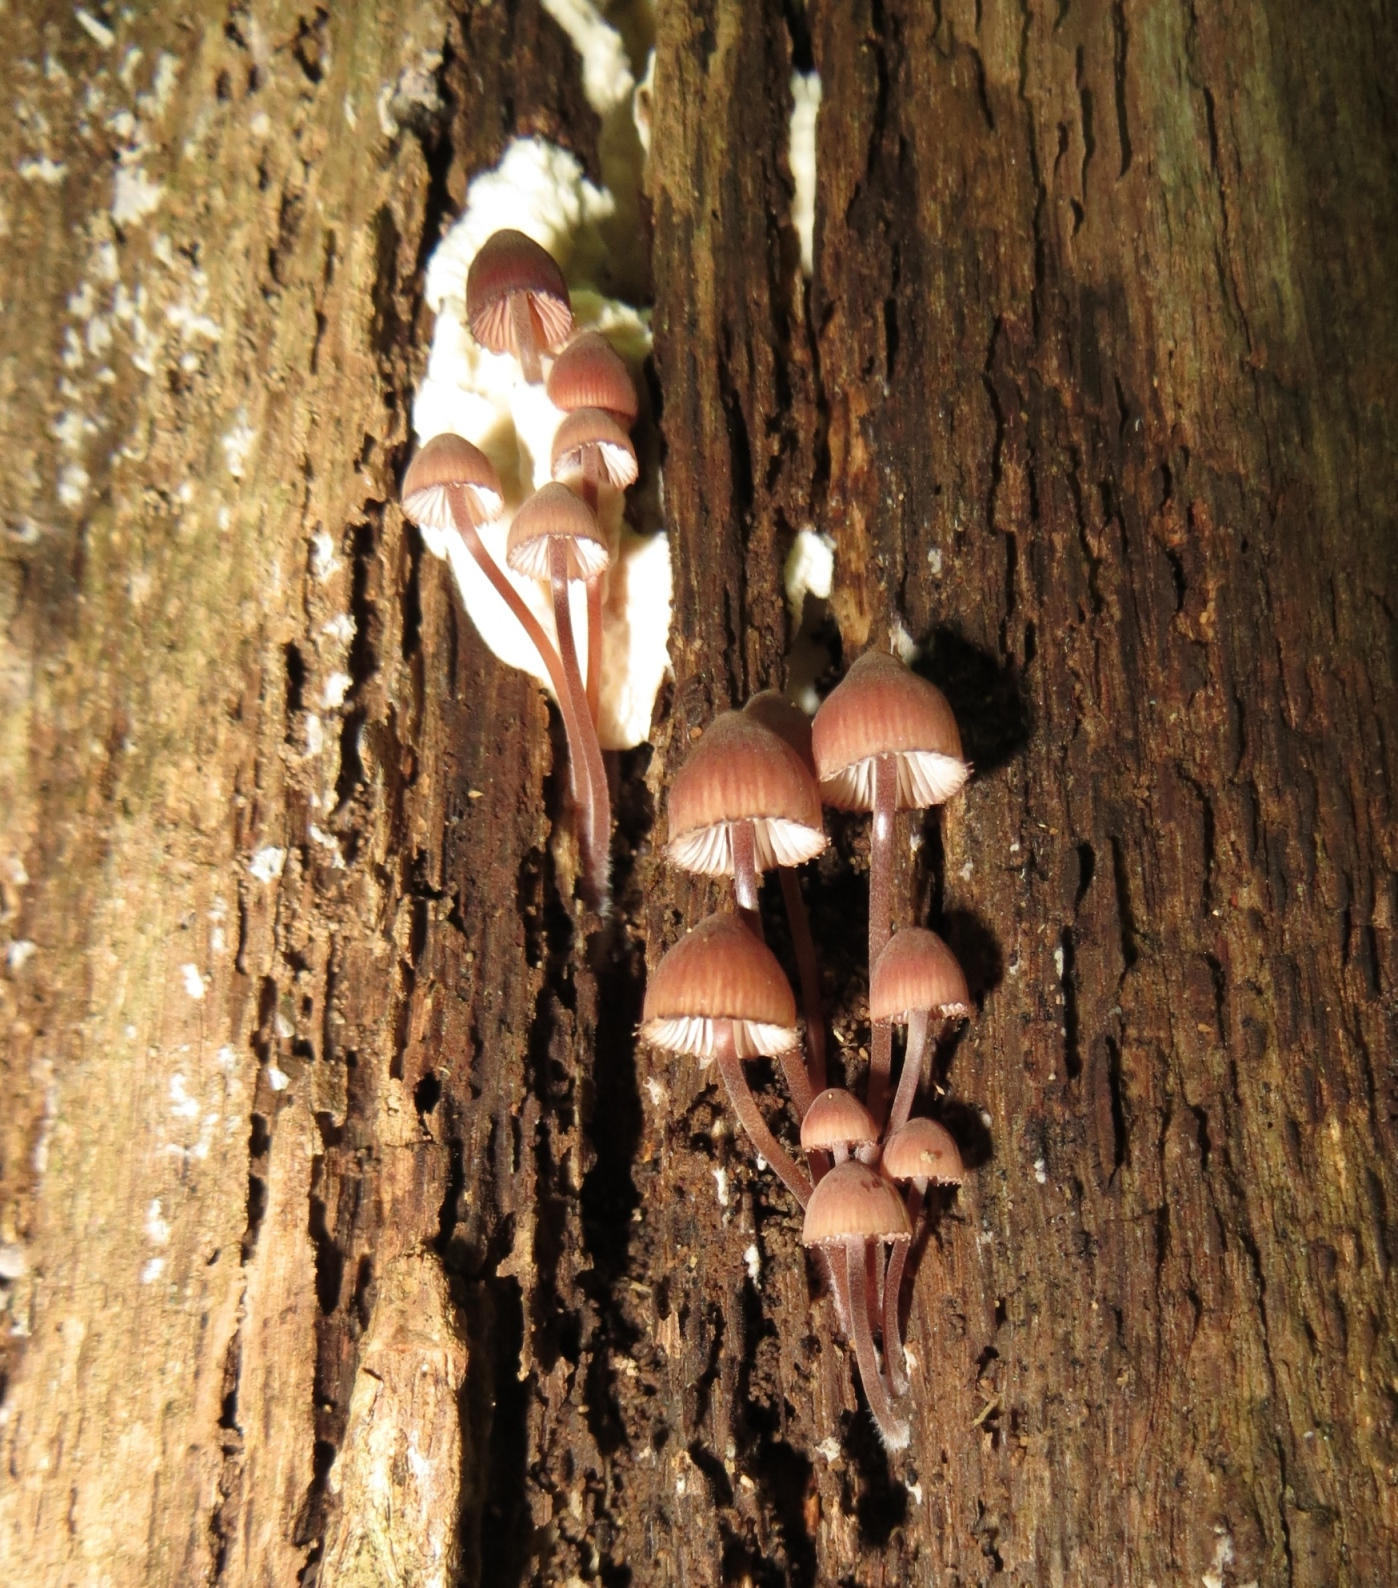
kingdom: Fungi
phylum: Basidiomycota
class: Agaricomycetes
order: Agaricales
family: Mycenaceae
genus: Mycena
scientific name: Mycena haematopus
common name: Burgundydrop bonnet
